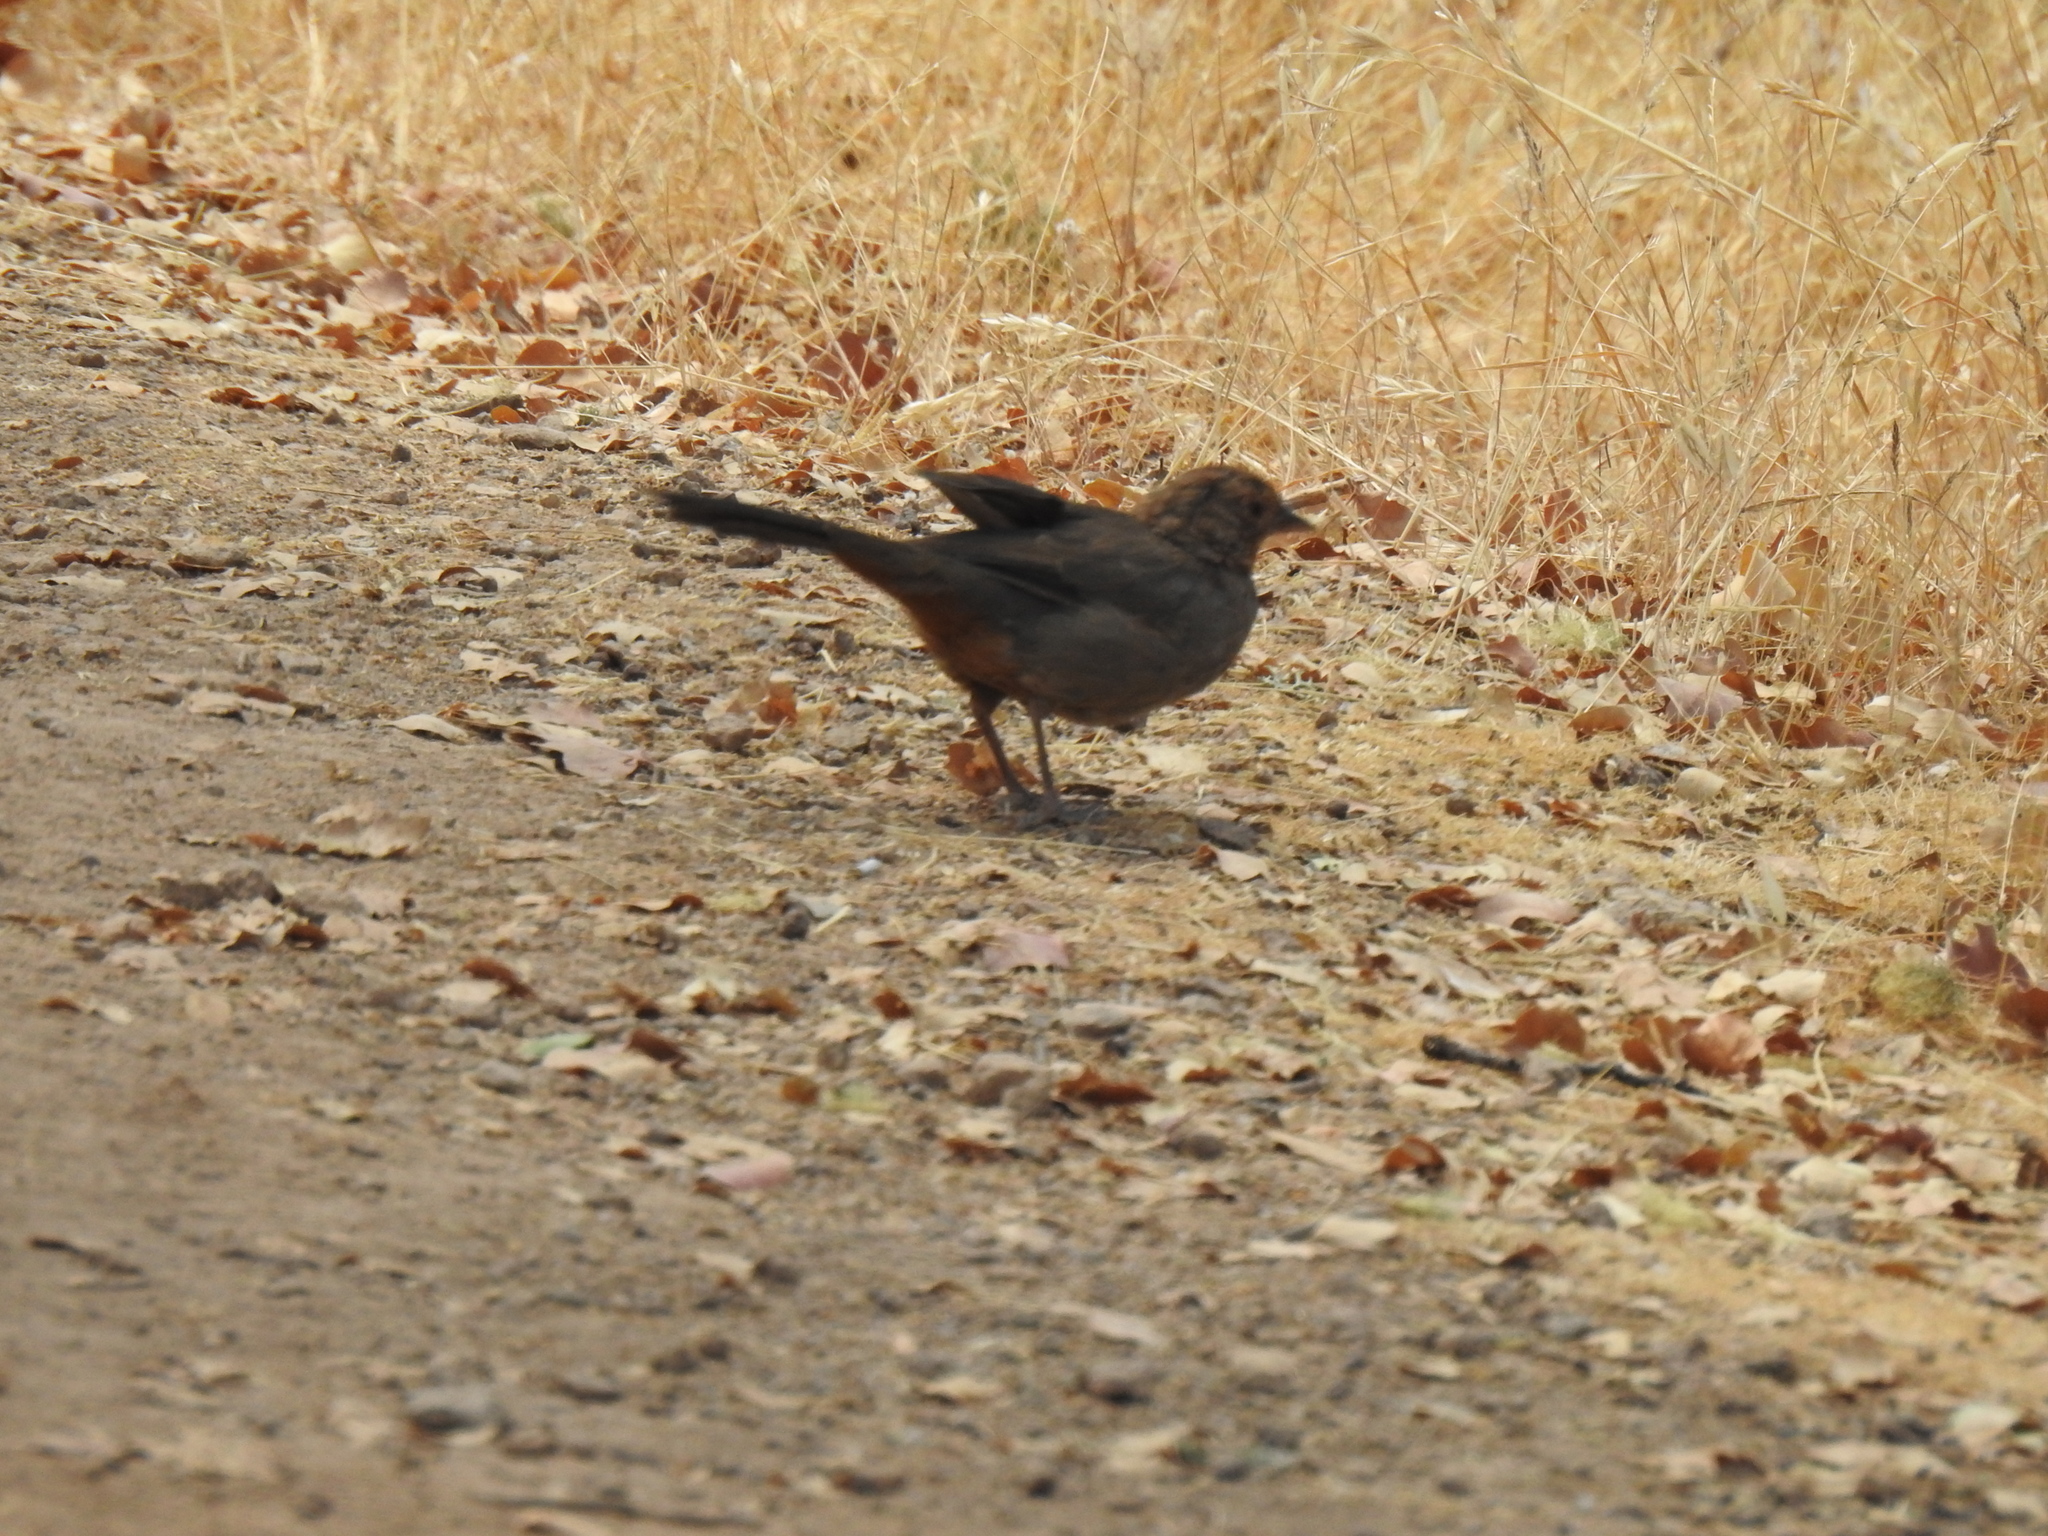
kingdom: Animalia
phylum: Chordata
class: Aves
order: Passeriformes
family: Passerellidae
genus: Melozone
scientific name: Melozone crissalis
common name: California towhee
